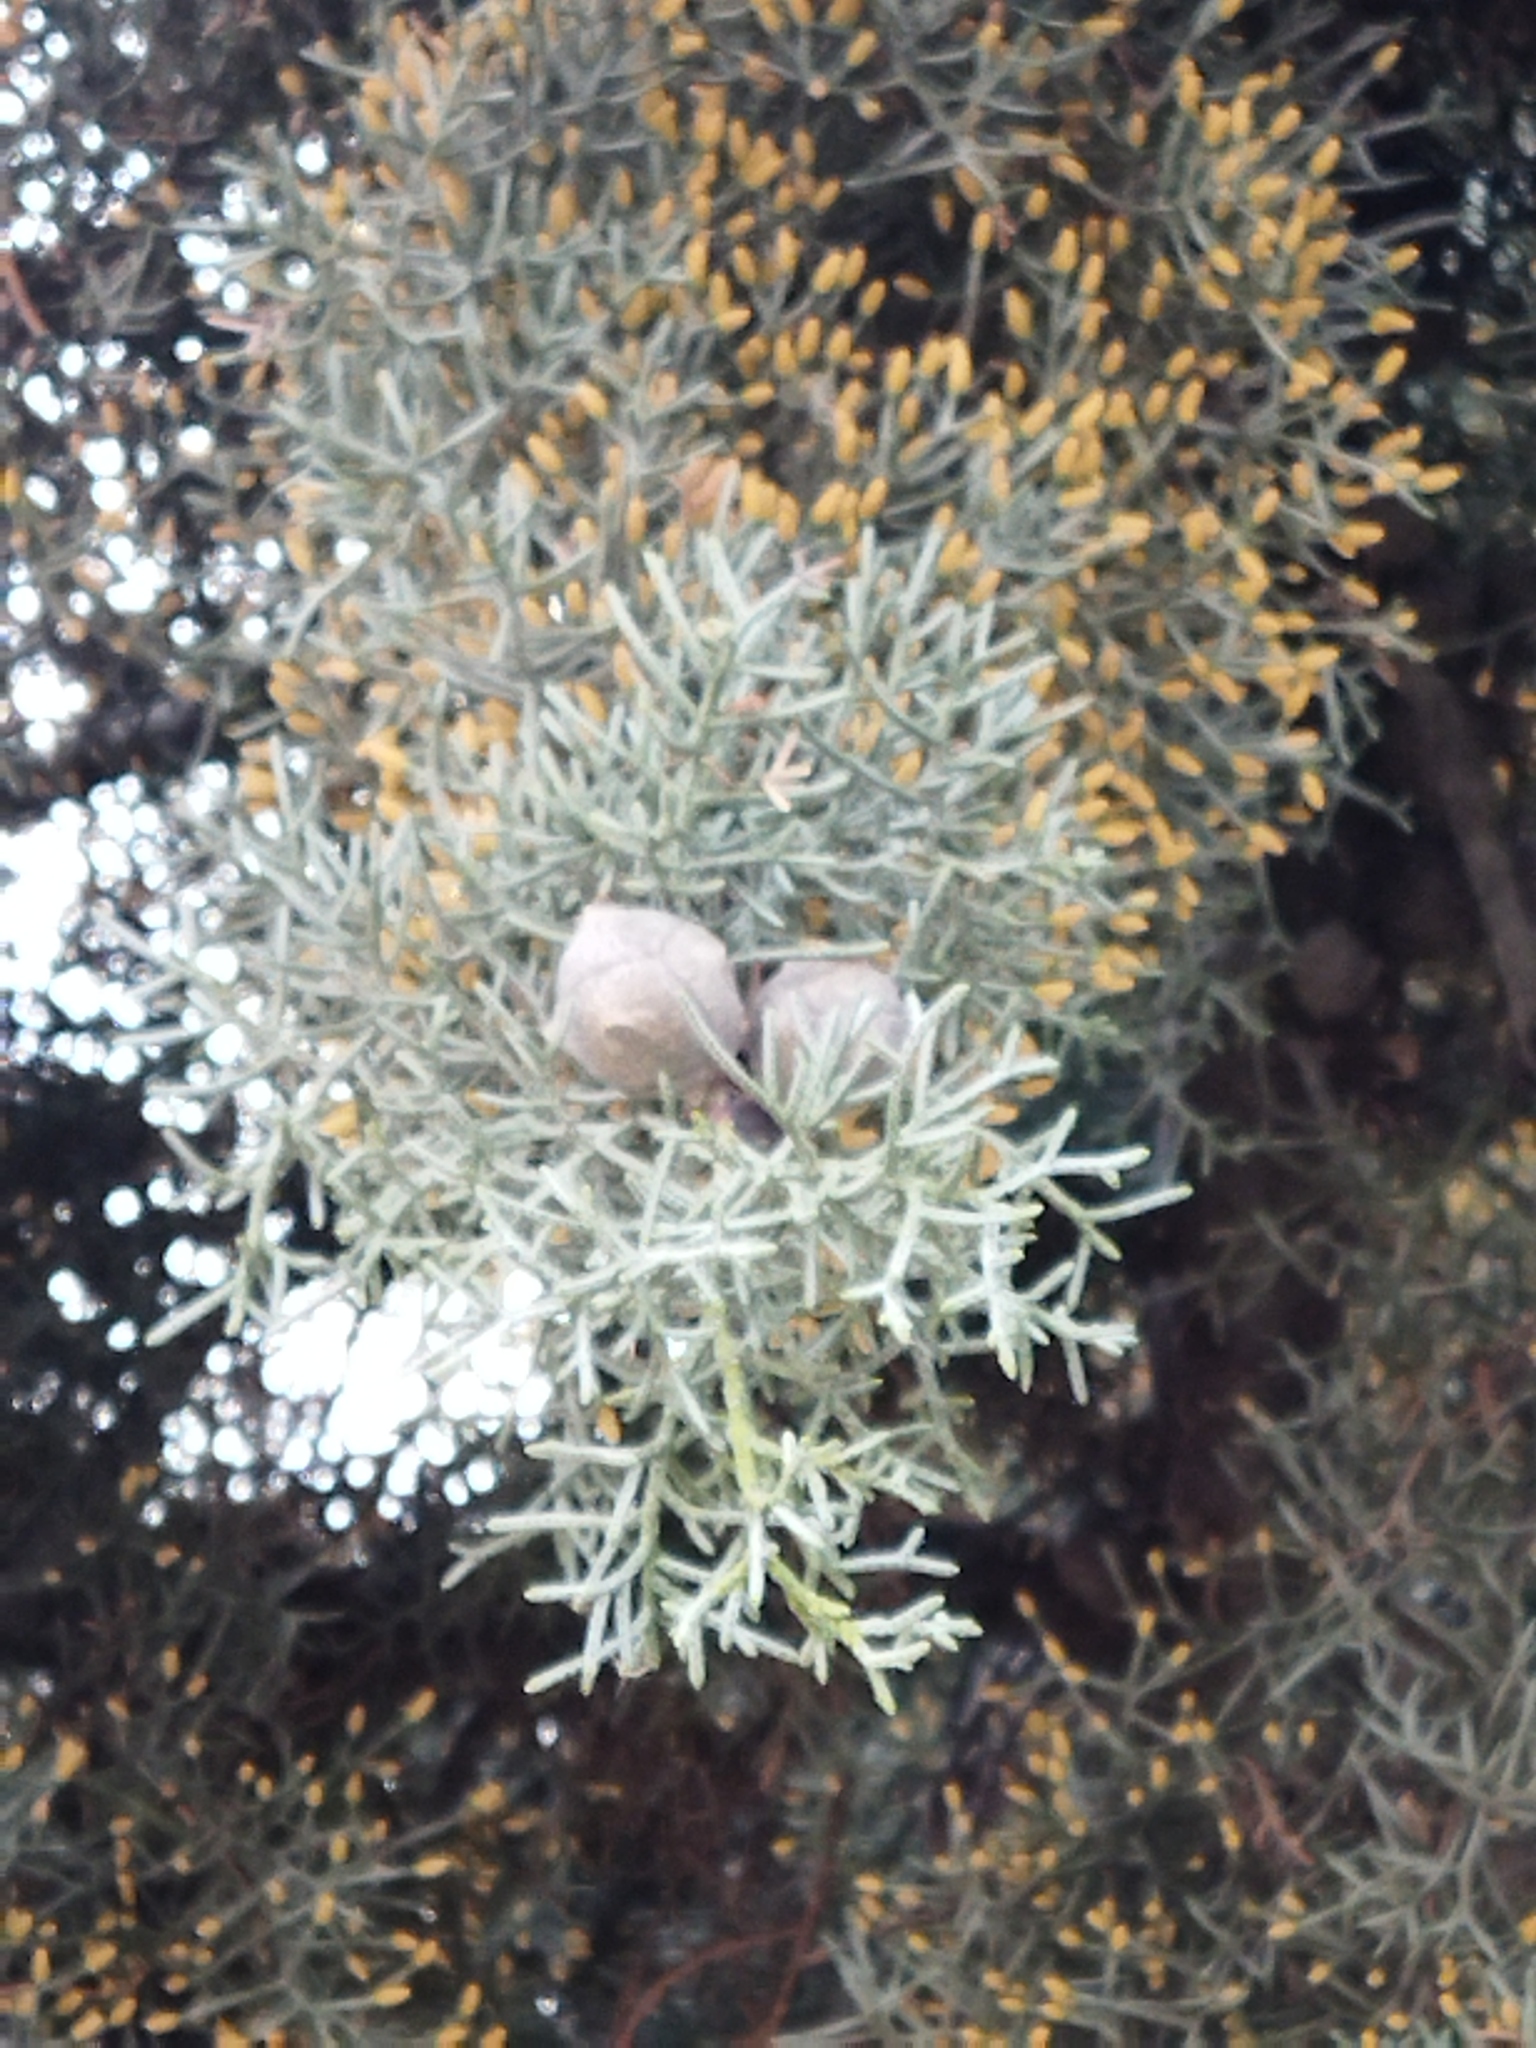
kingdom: Plantae
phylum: Tracheophyta
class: Pinopsida
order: Pinales
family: Cupressaceae
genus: Cupressus
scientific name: Cupressus arizonica
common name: Arizona cypress
